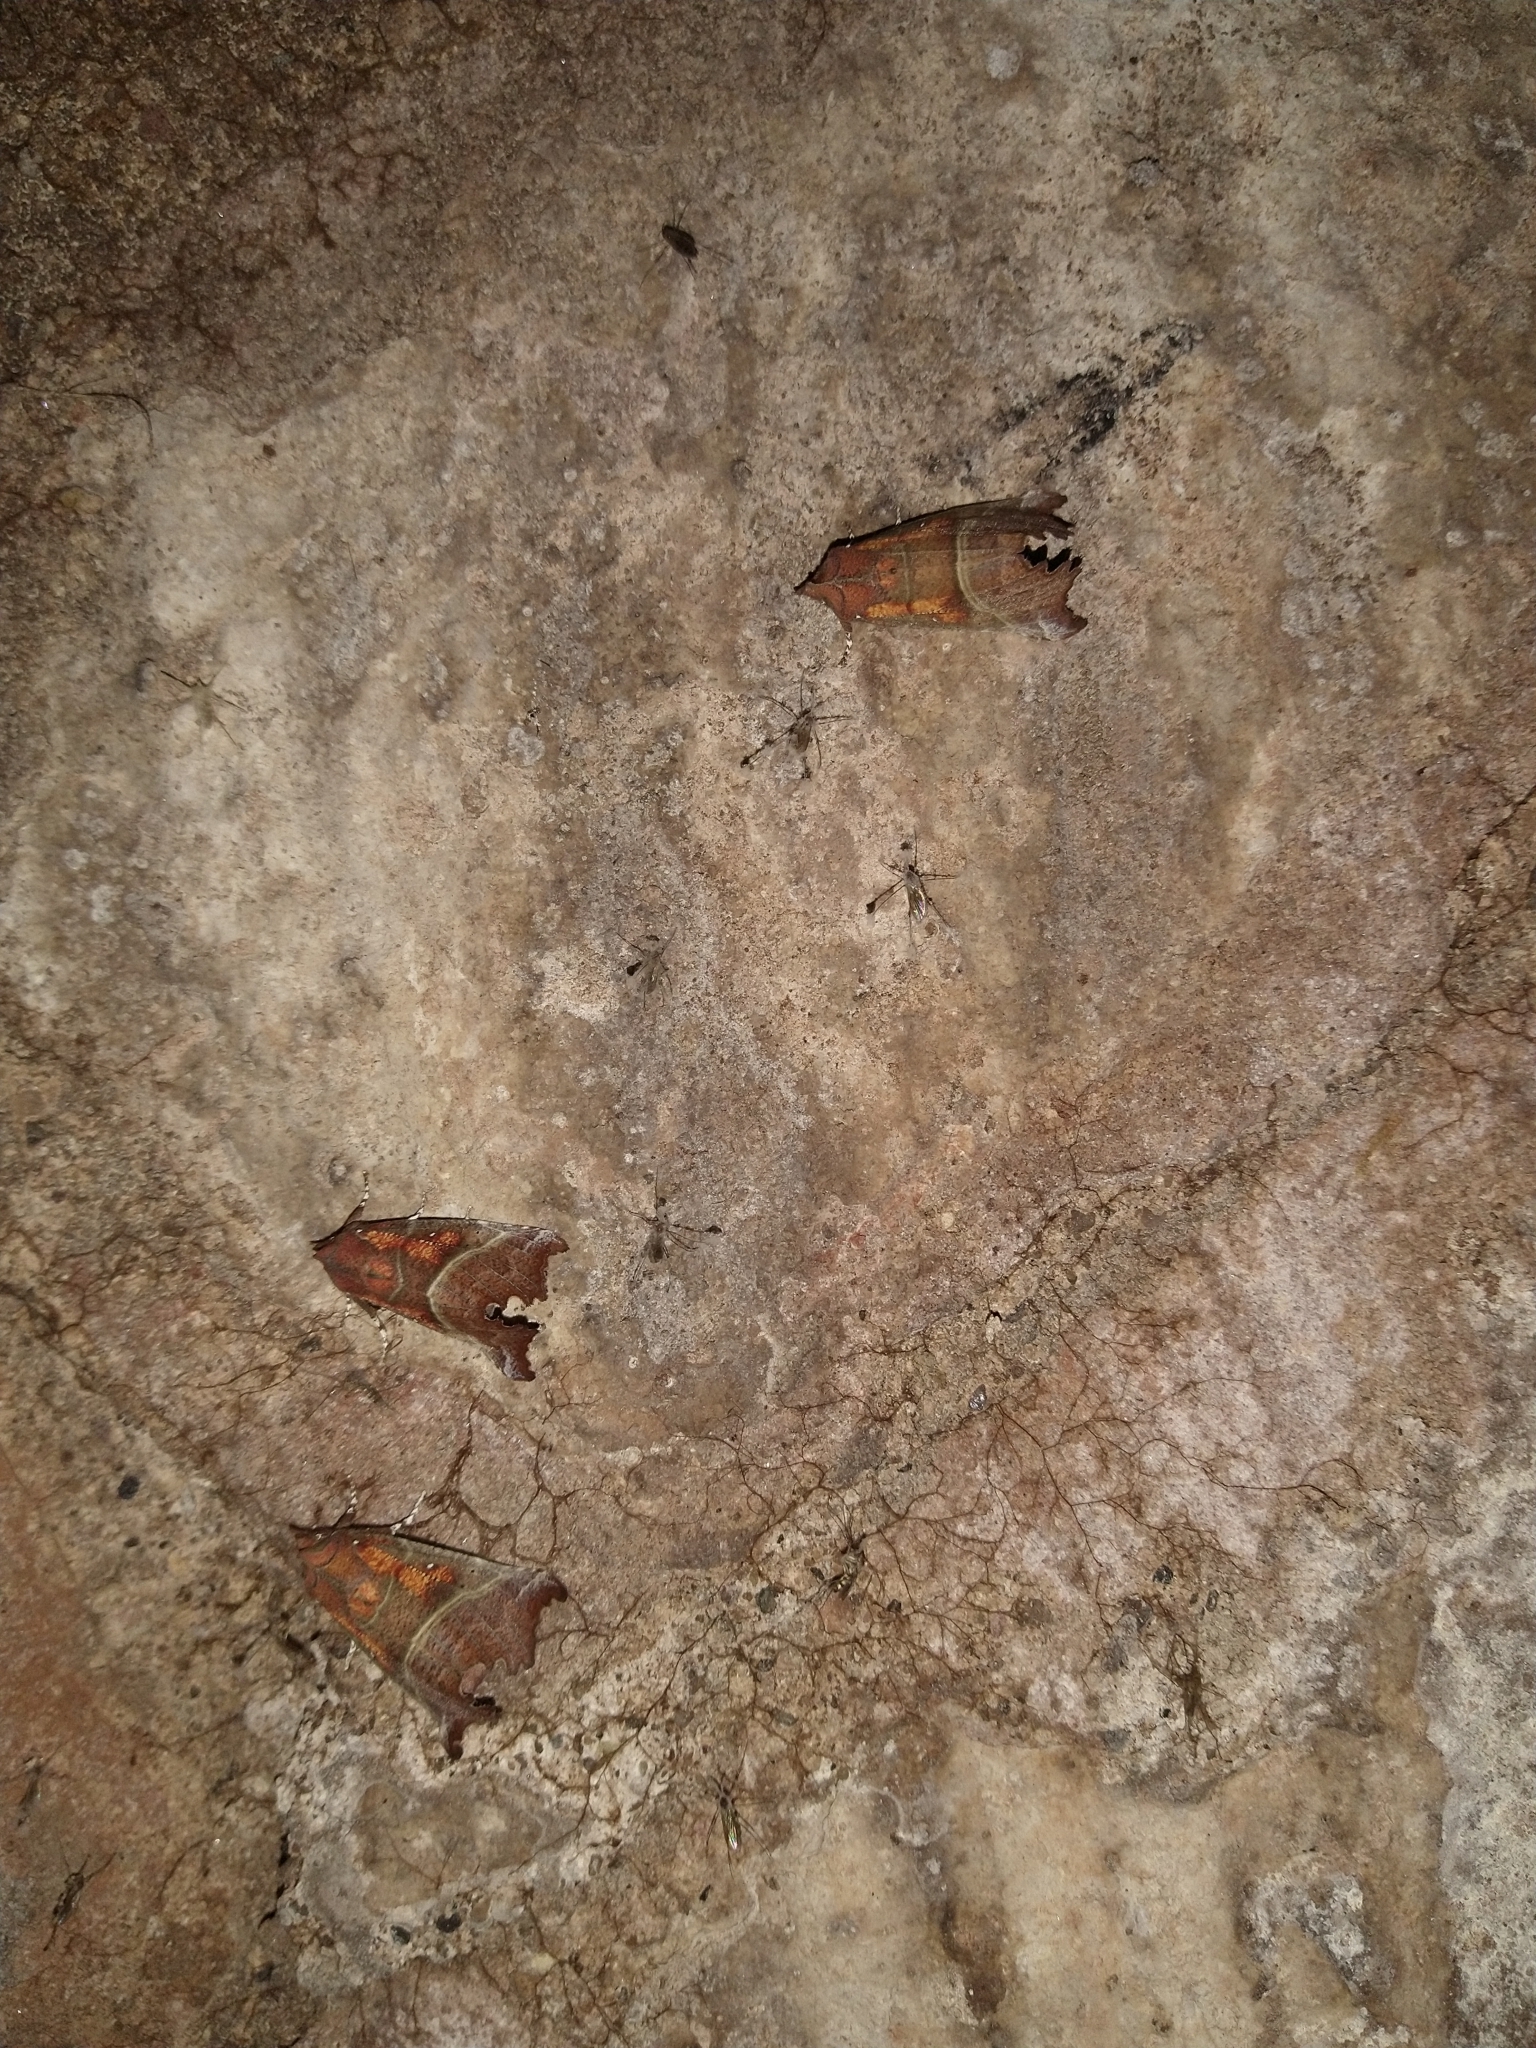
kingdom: Animalia
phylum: Arthropoda
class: Insecta
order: Lepidoptera
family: Erebidae
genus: Scoliopteryx
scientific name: Scoliopteryx libatrix
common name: Herald
